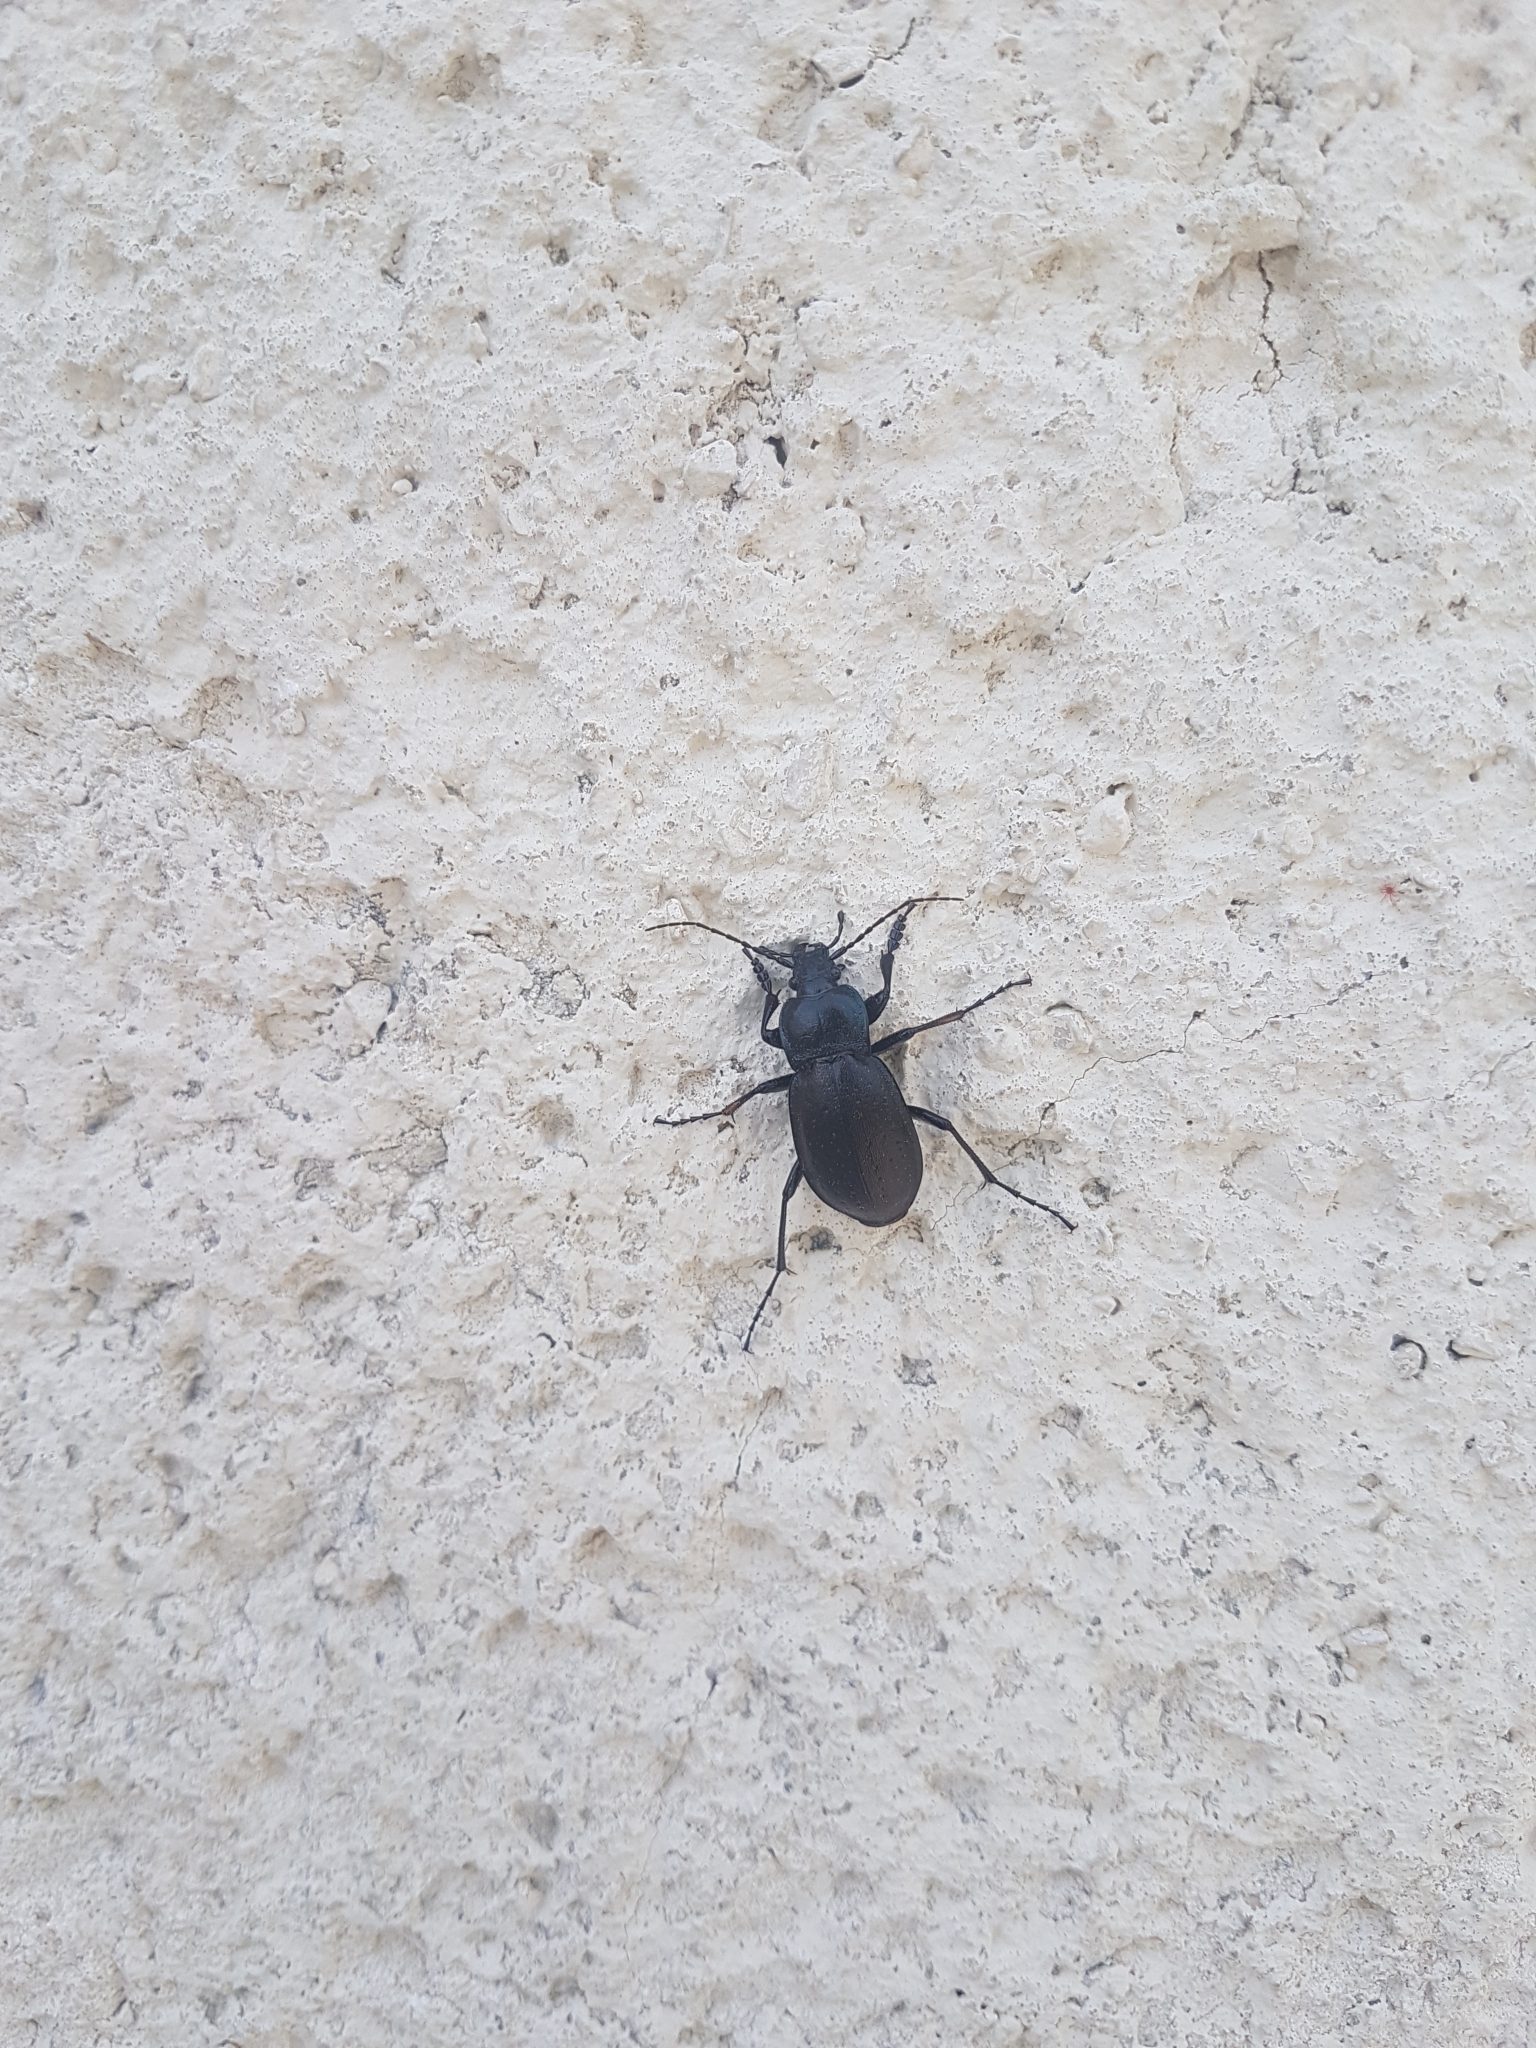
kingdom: Animalia
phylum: Arthropoda
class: Insecta
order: Coleoptera
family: Carabidae
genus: Carabus
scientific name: Carabus nemoralis
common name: European ground beetle
